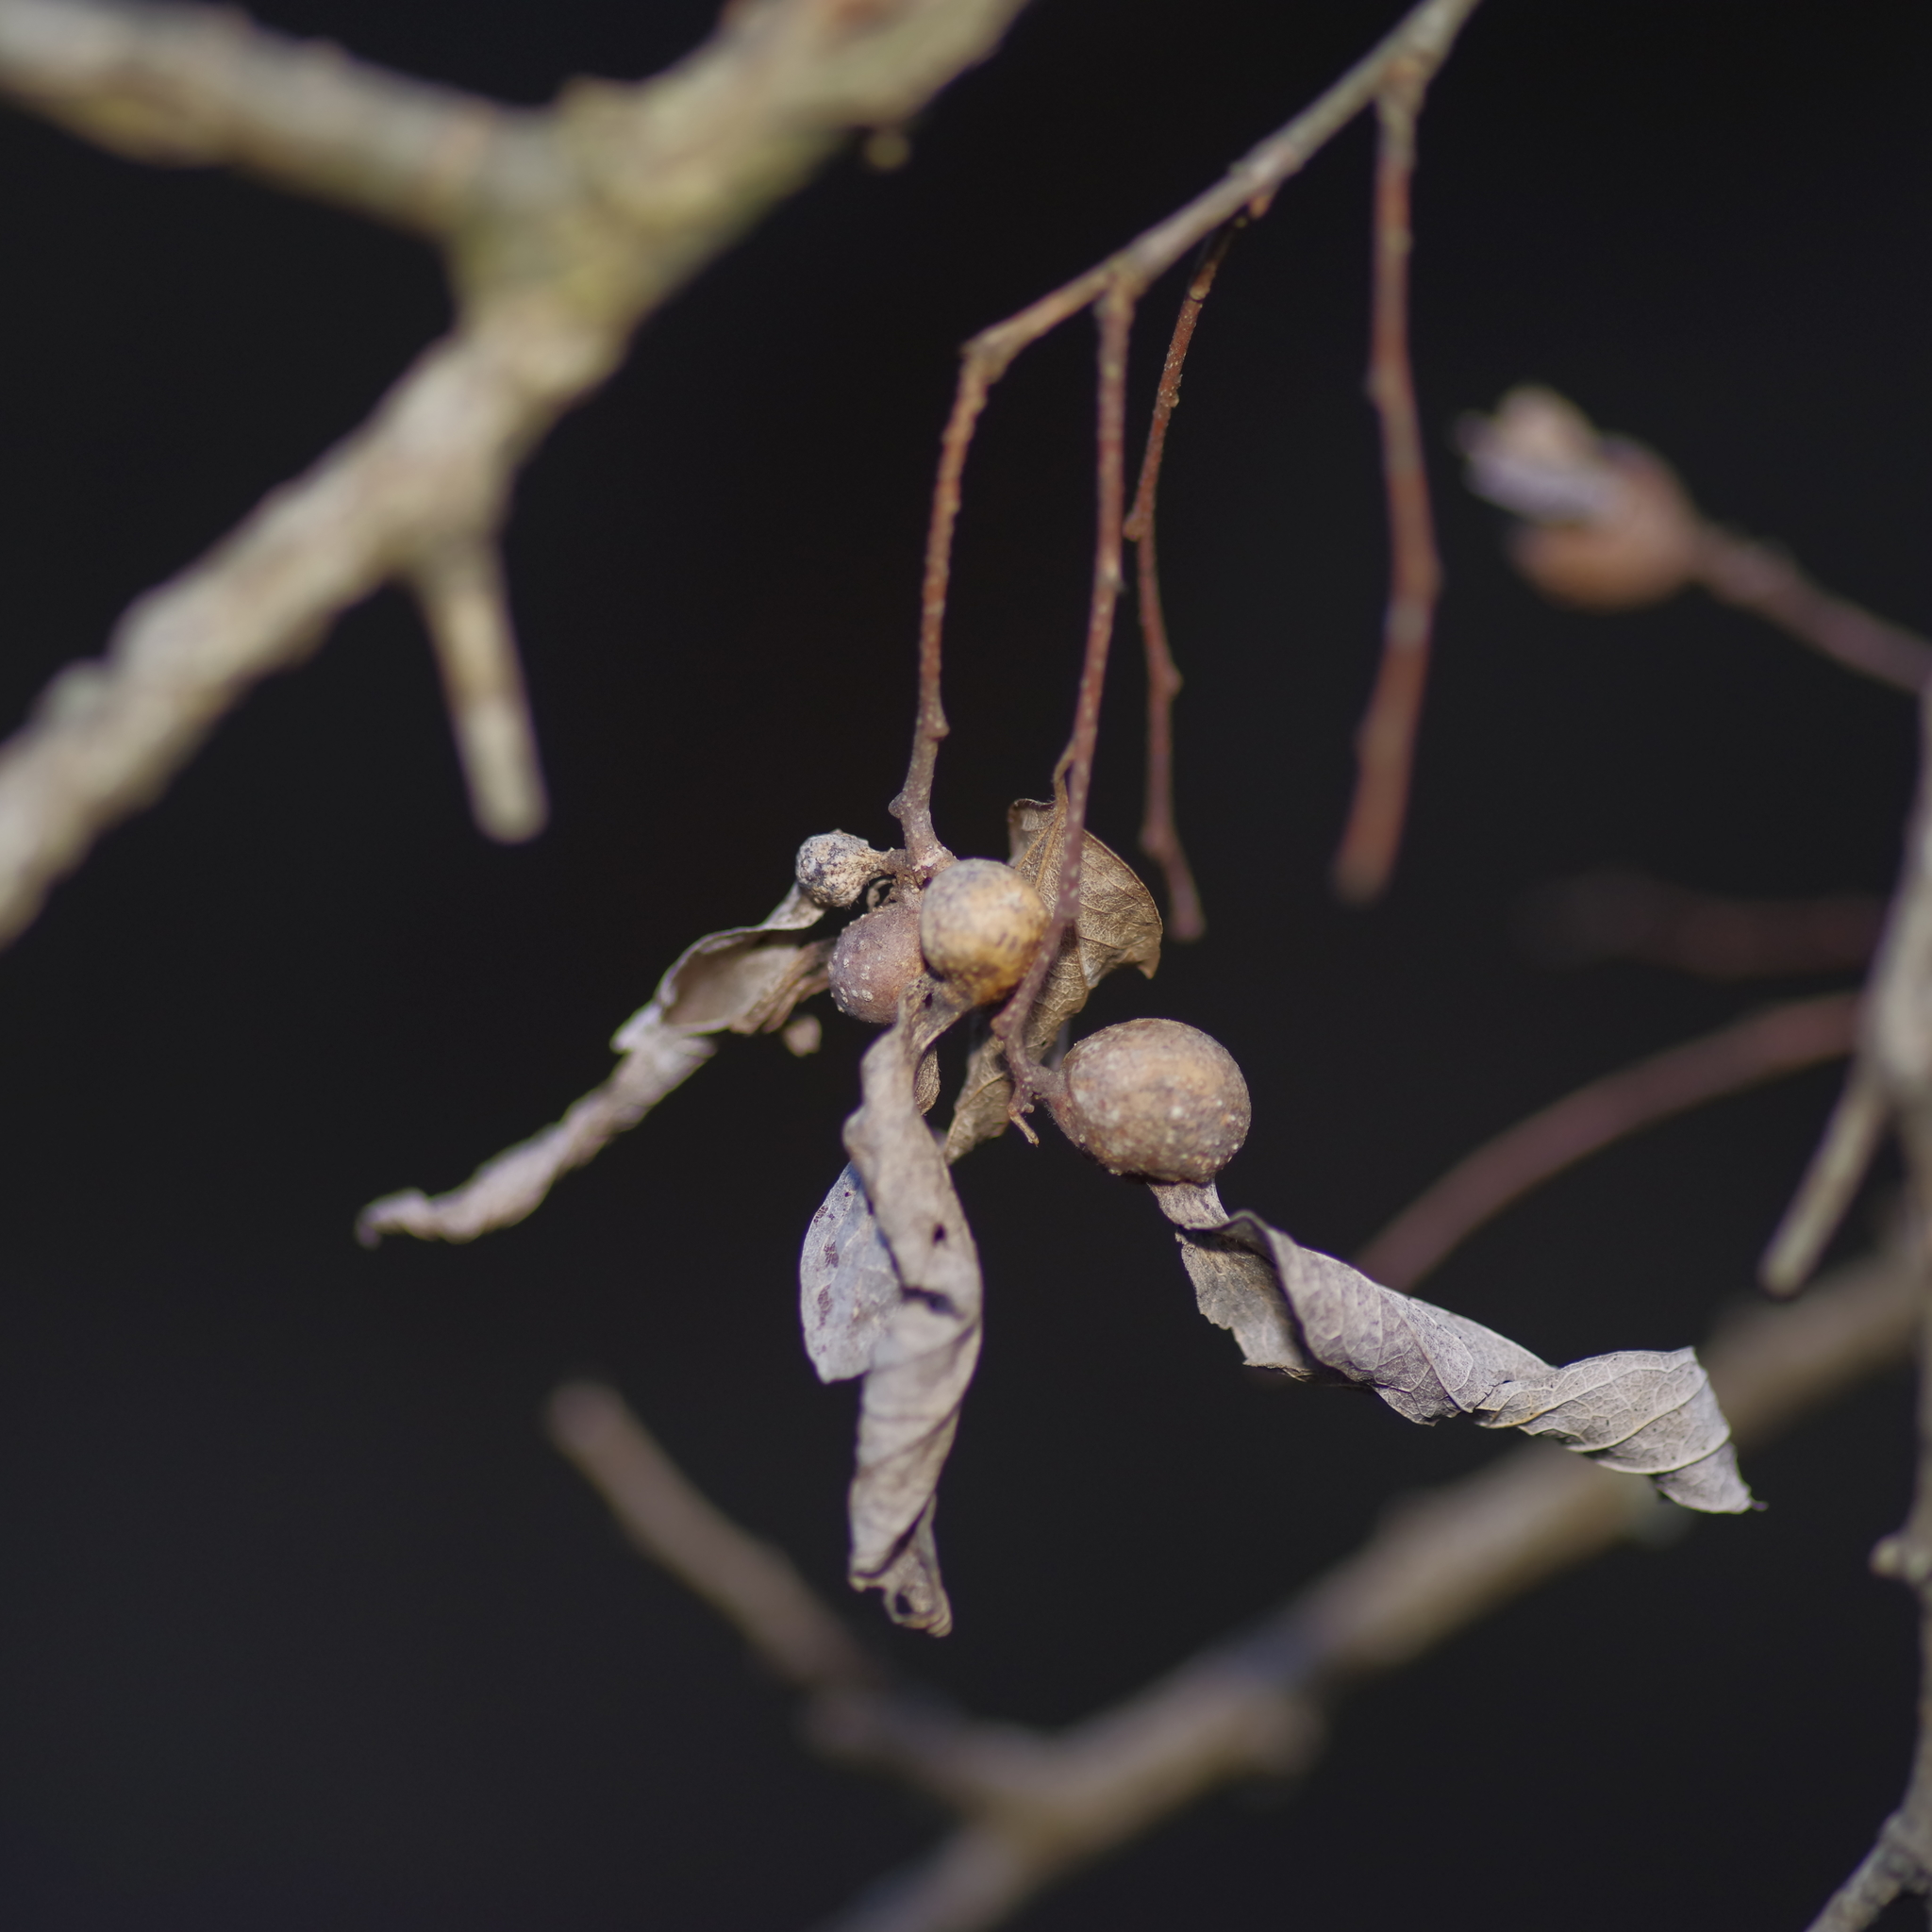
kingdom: Plantae
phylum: Tracheophyta
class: Magnoliopsida
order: Rosales
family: Cannabaceae
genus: Celtis
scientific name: Celtis laevigata
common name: Sugarberry
